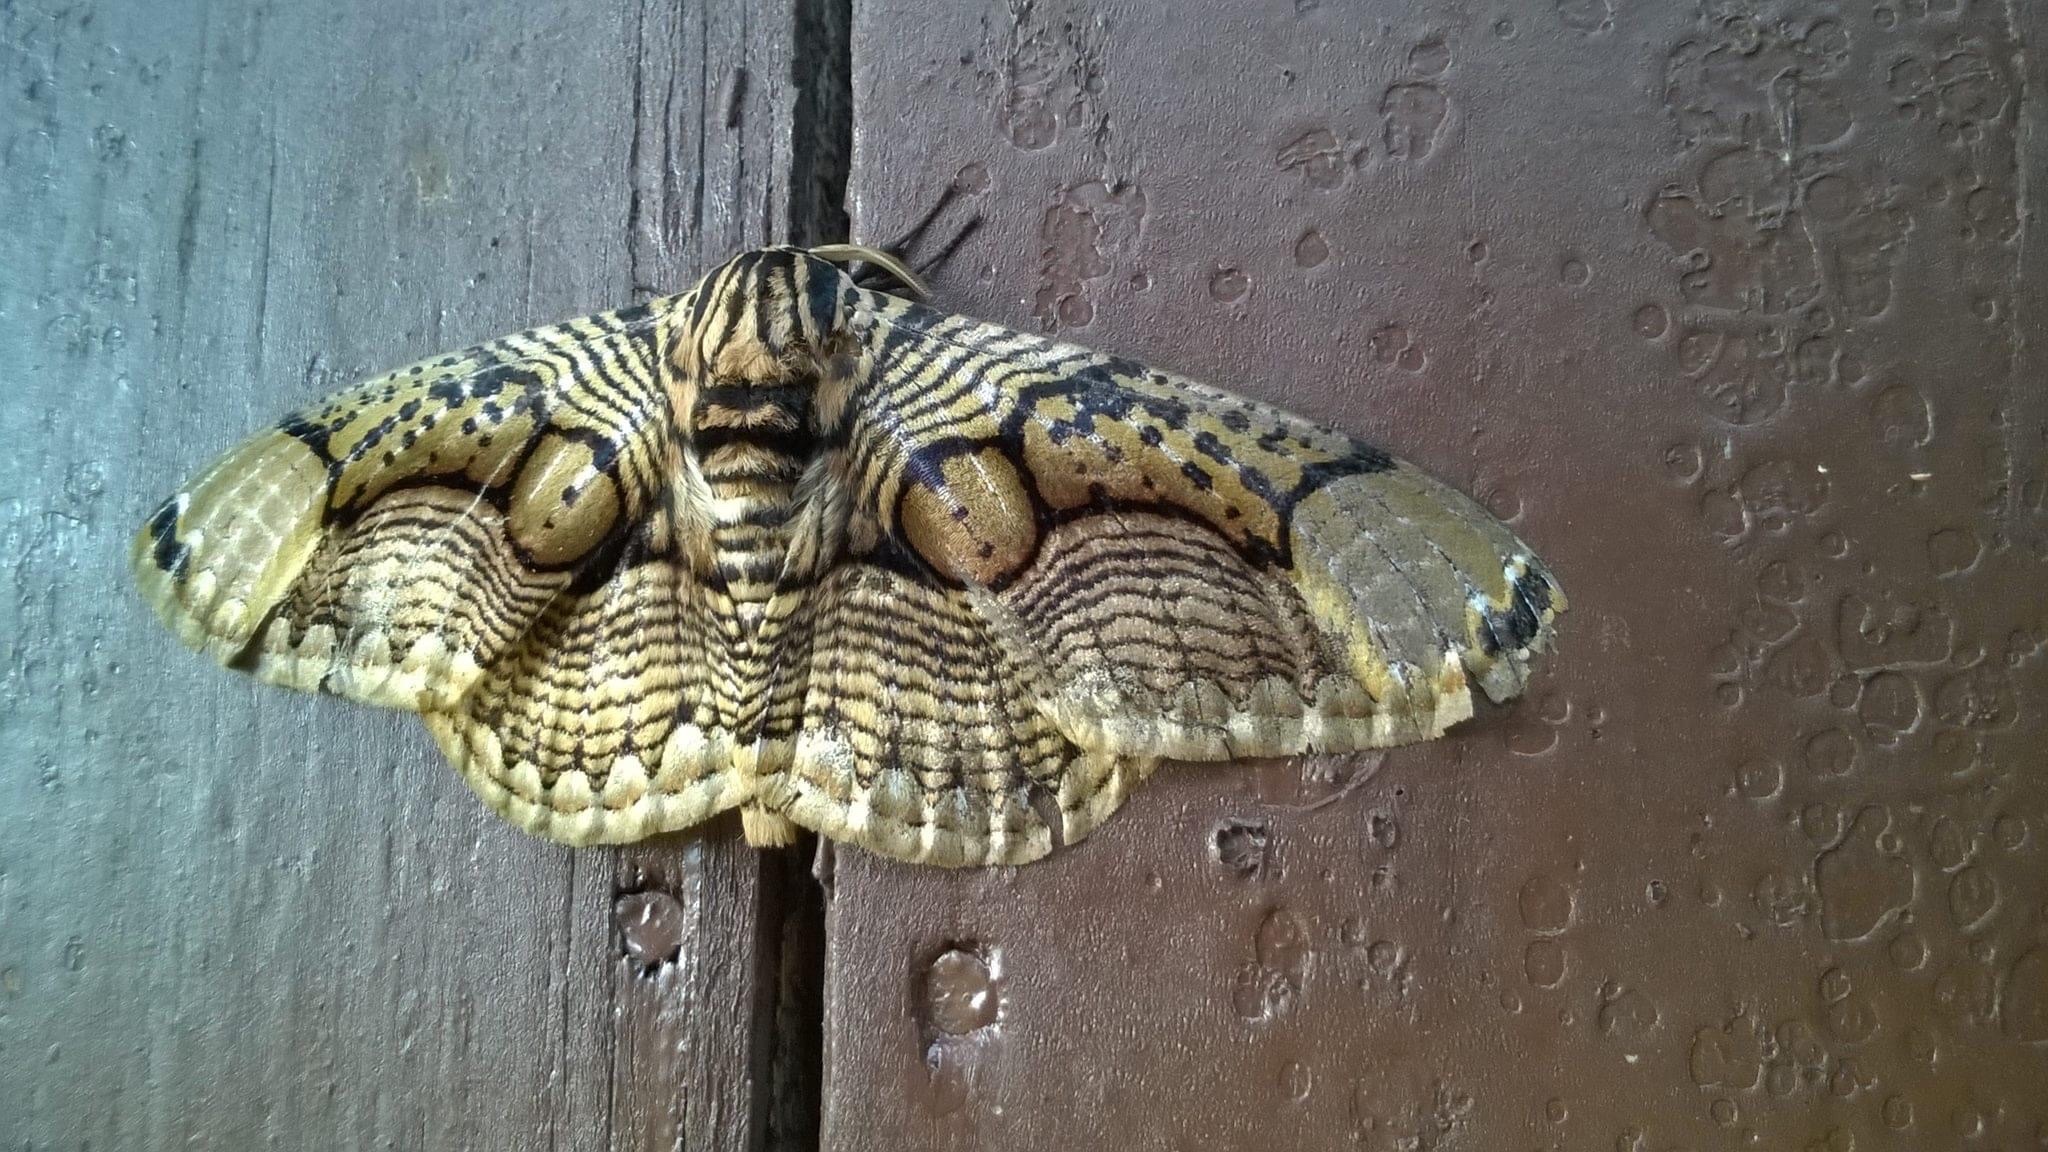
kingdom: Animalia
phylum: Arthropoda
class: Insecta
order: Lepidoptera
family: Brahmaeidae
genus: Brahmaea
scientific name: Brahmaea hearseyi
